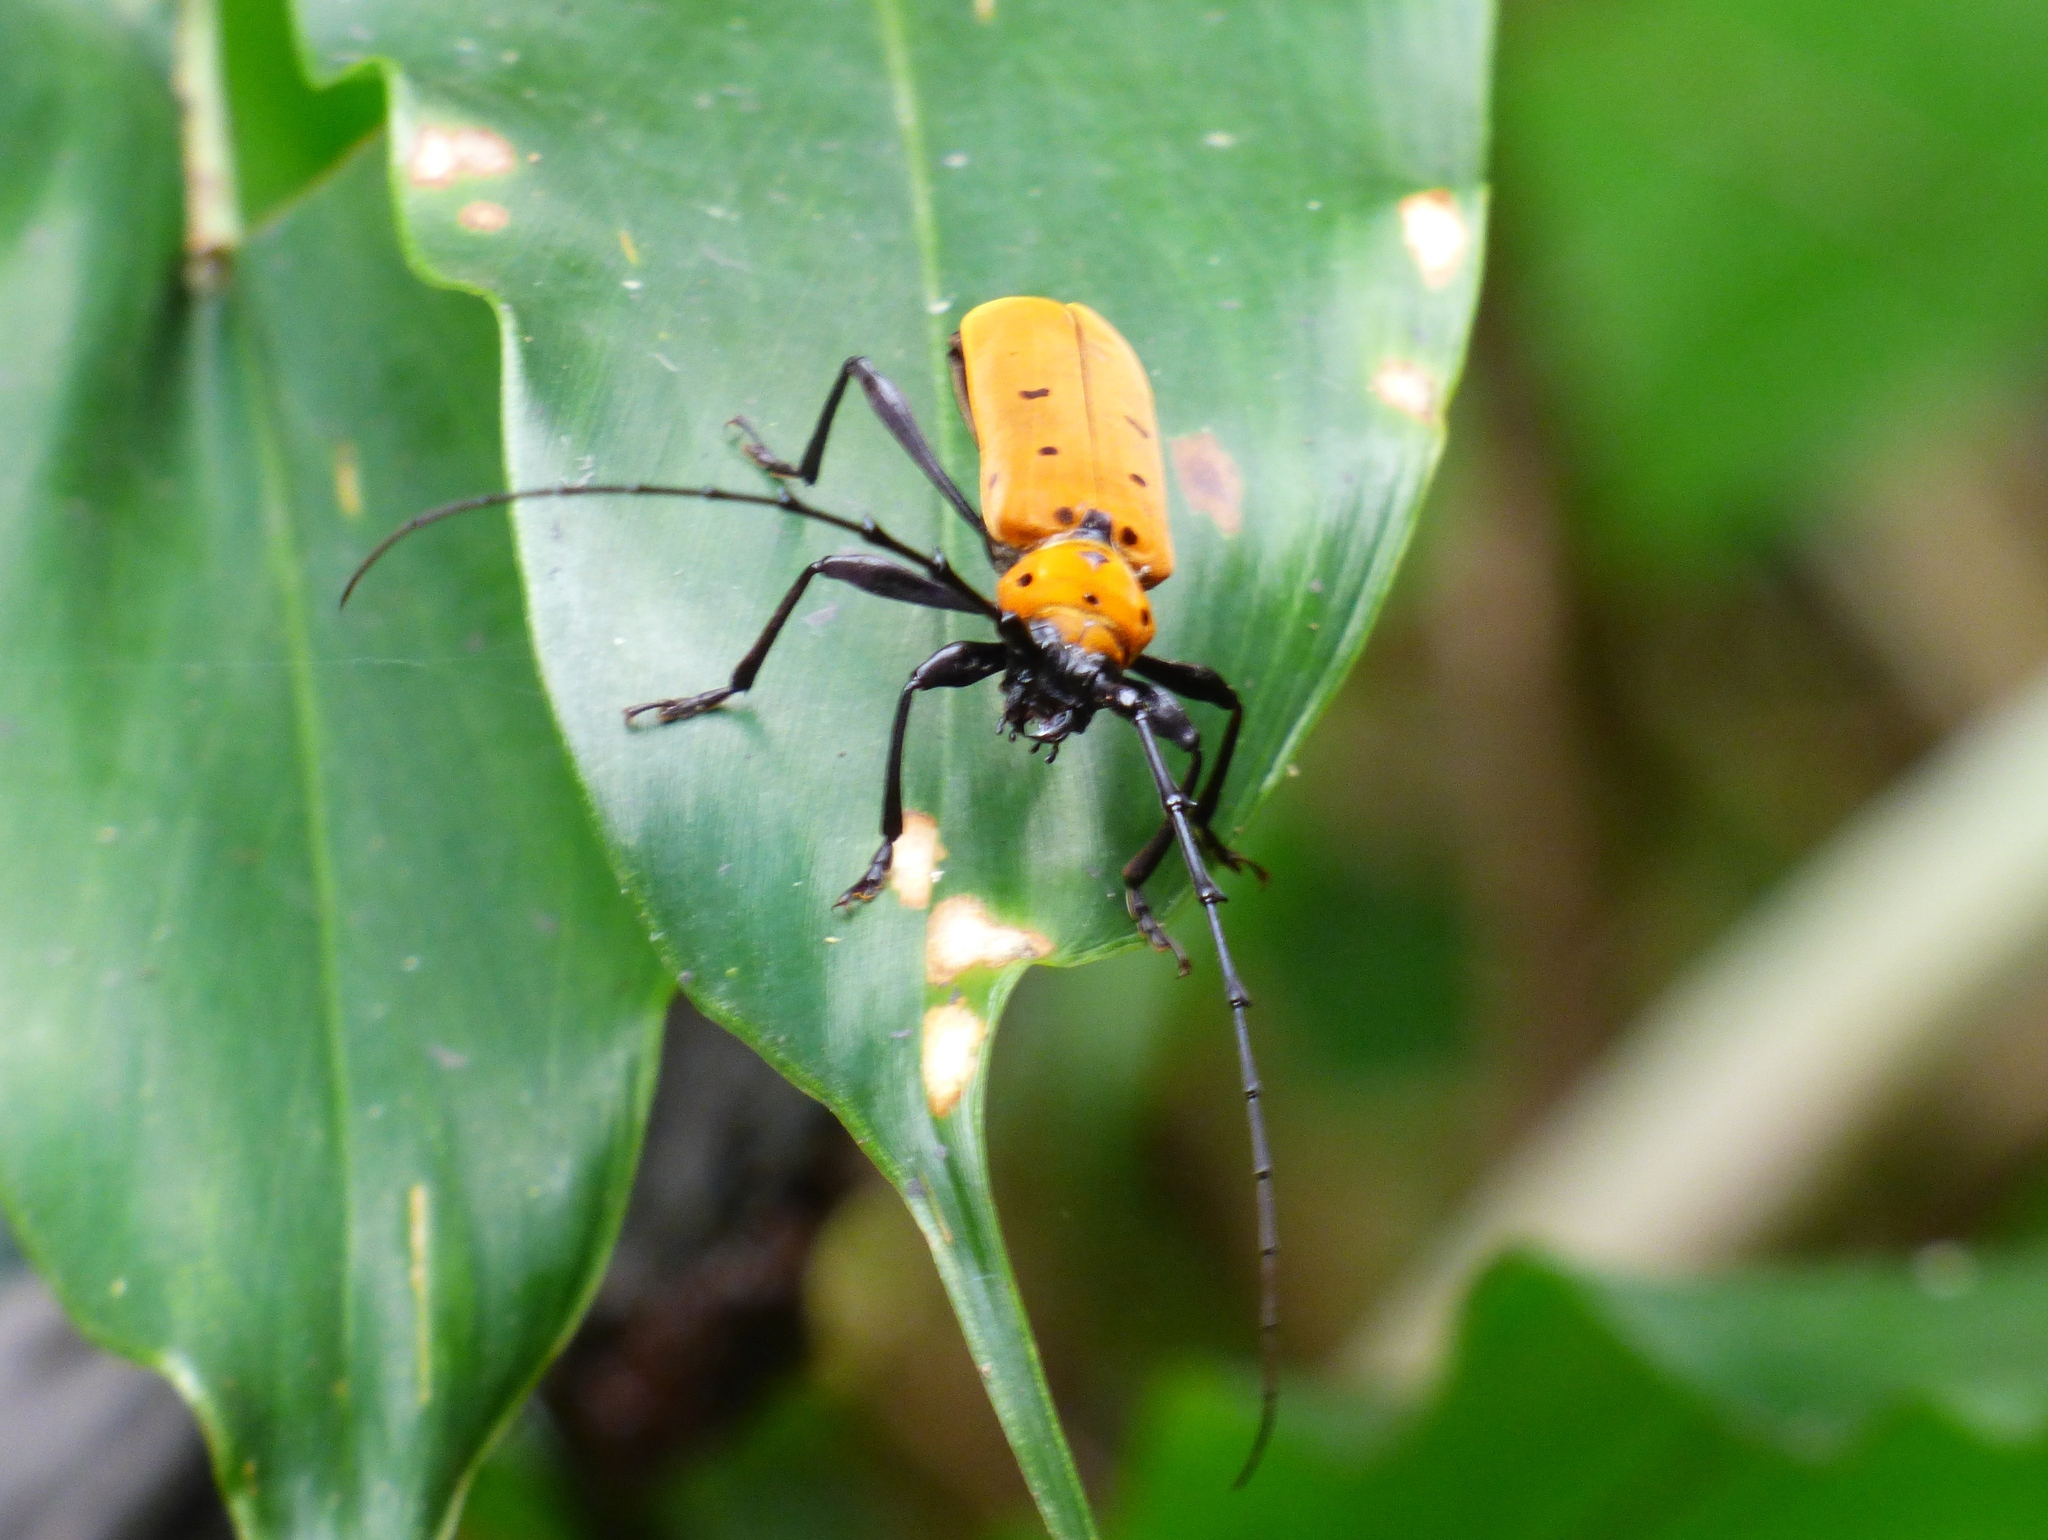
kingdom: Animalia
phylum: Arthropoda
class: Insecta
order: Coleoptera
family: Cerambycidae
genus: Rosalia
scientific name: Rosalia decempunctata
